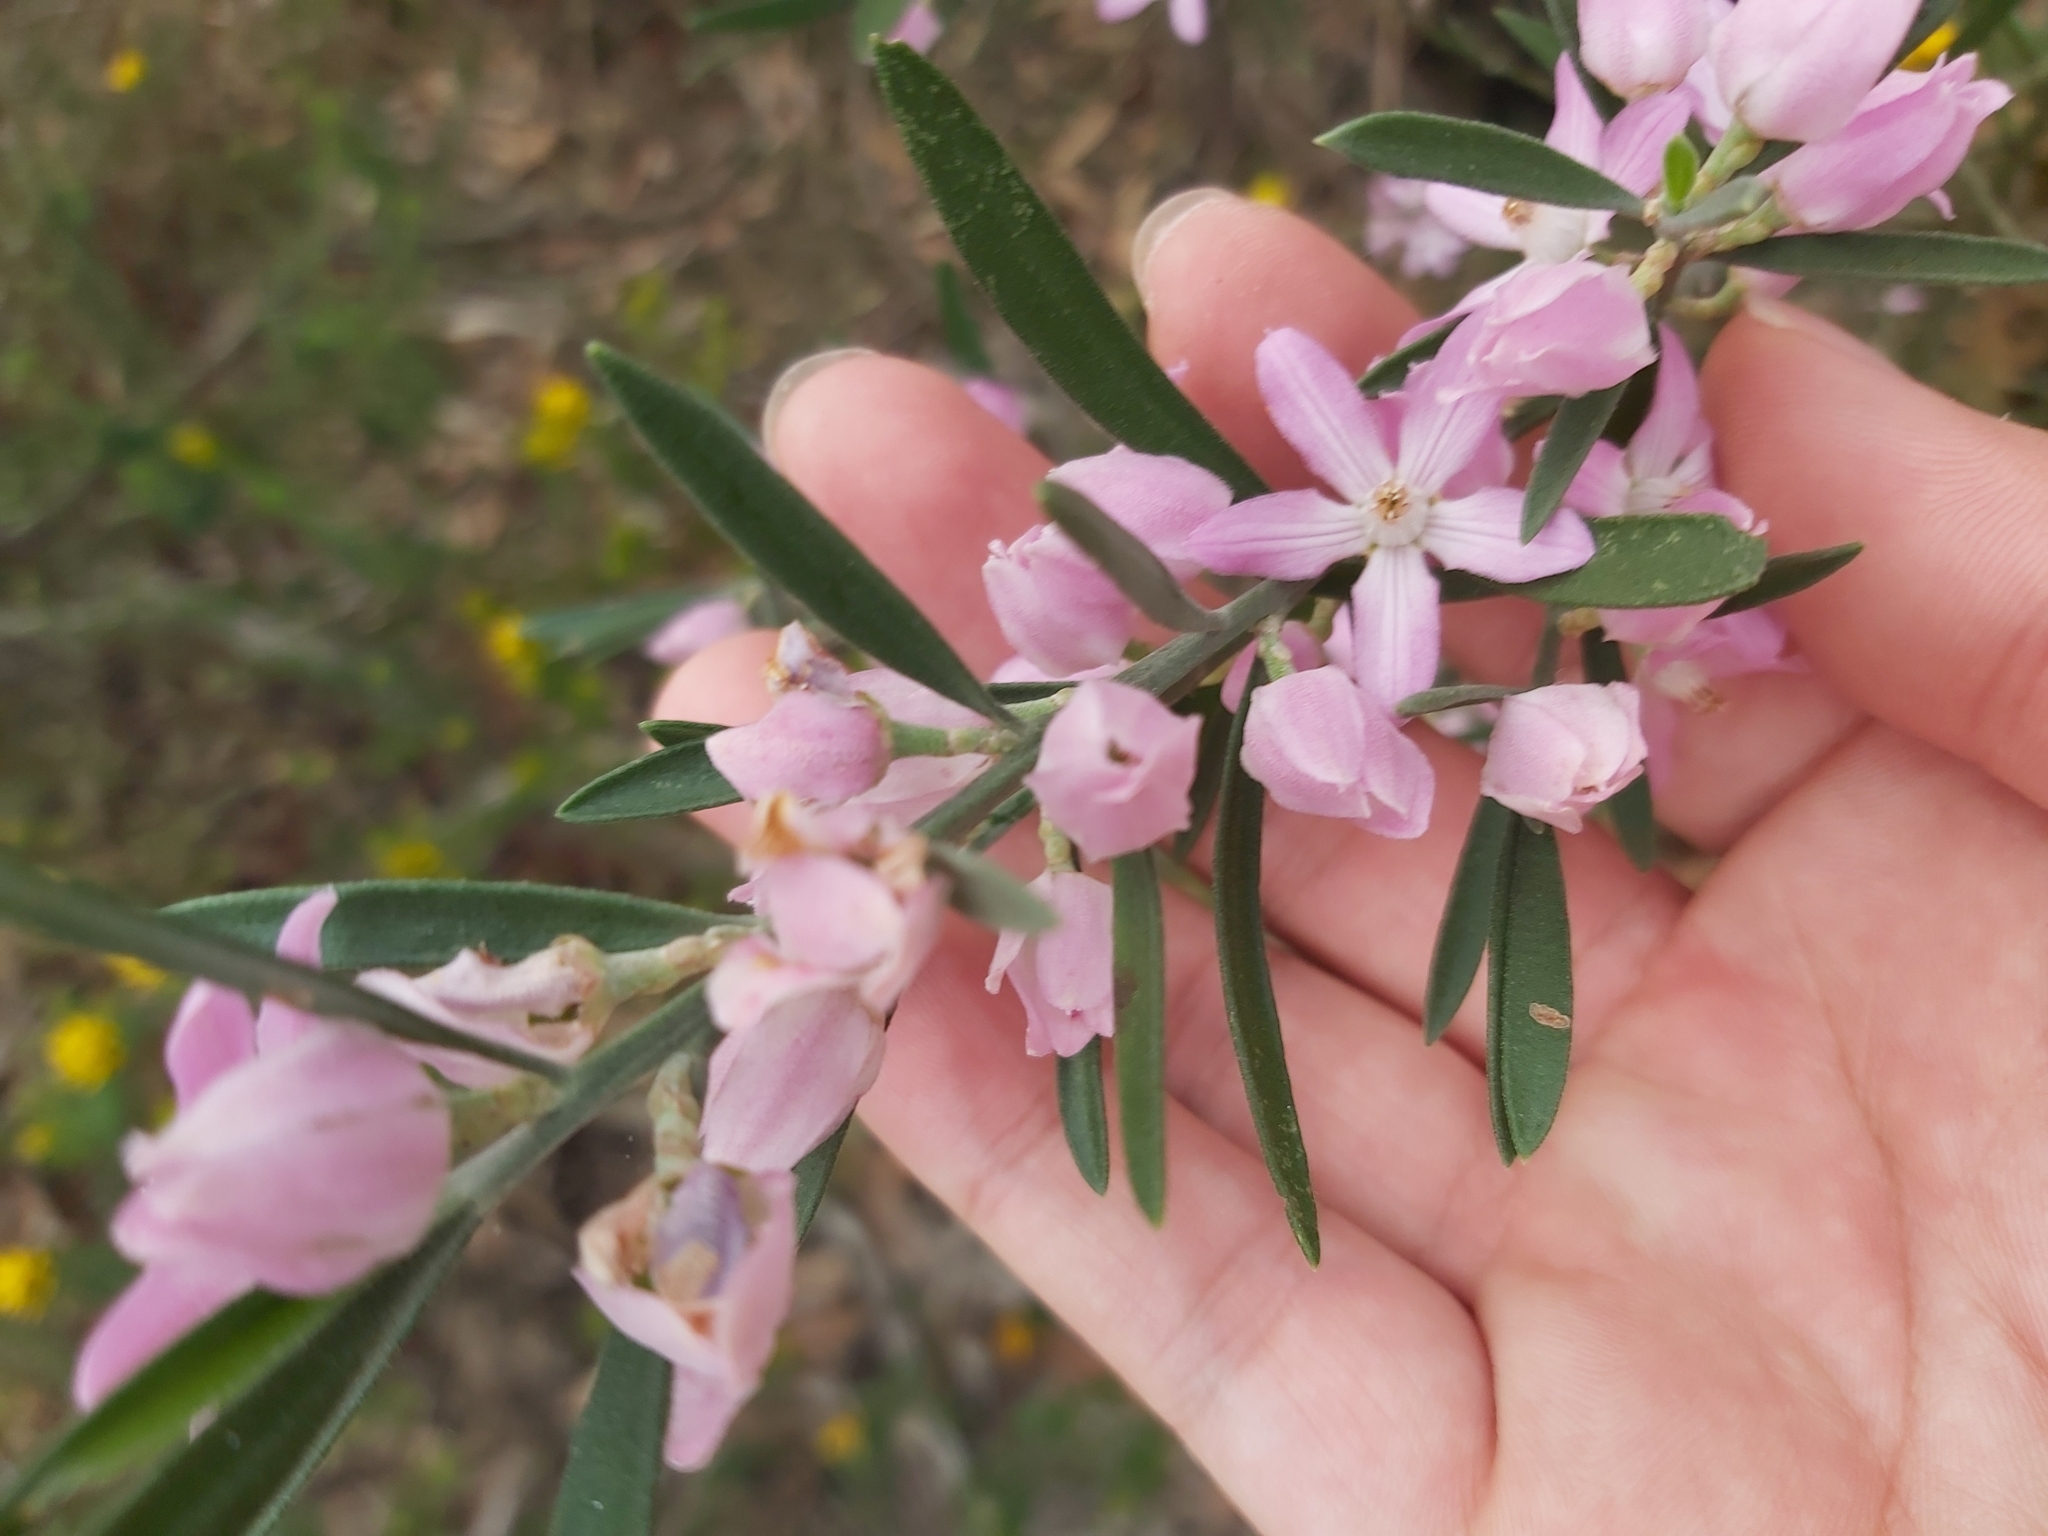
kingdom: Plantae
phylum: Tracheophyta
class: Magnoliopsida
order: Sapindales
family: Rutaceae
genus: Eriostemon
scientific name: Eriostemon australasius
